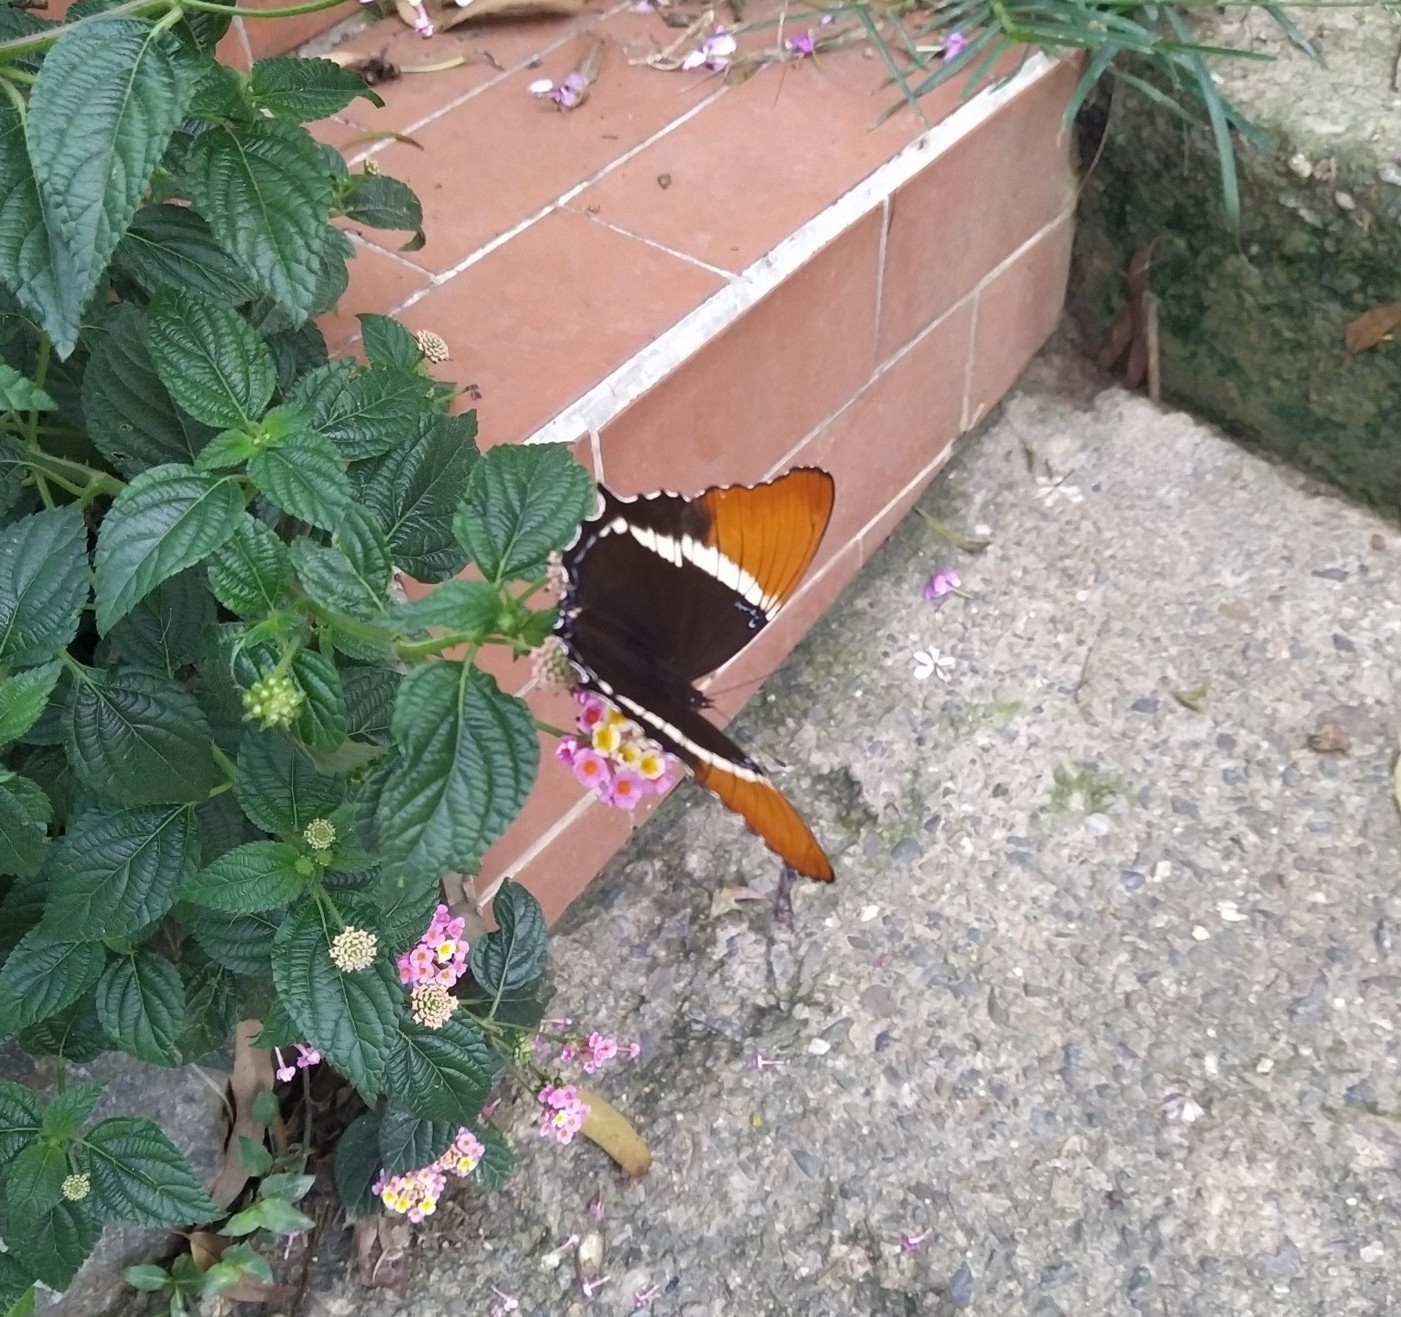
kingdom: Animalia
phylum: Arthropoda
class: Insecta
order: Lepidoptera
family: Nymphalidae
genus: Siproeta
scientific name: Siproeta epaphus
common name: Rusty-tipped page
